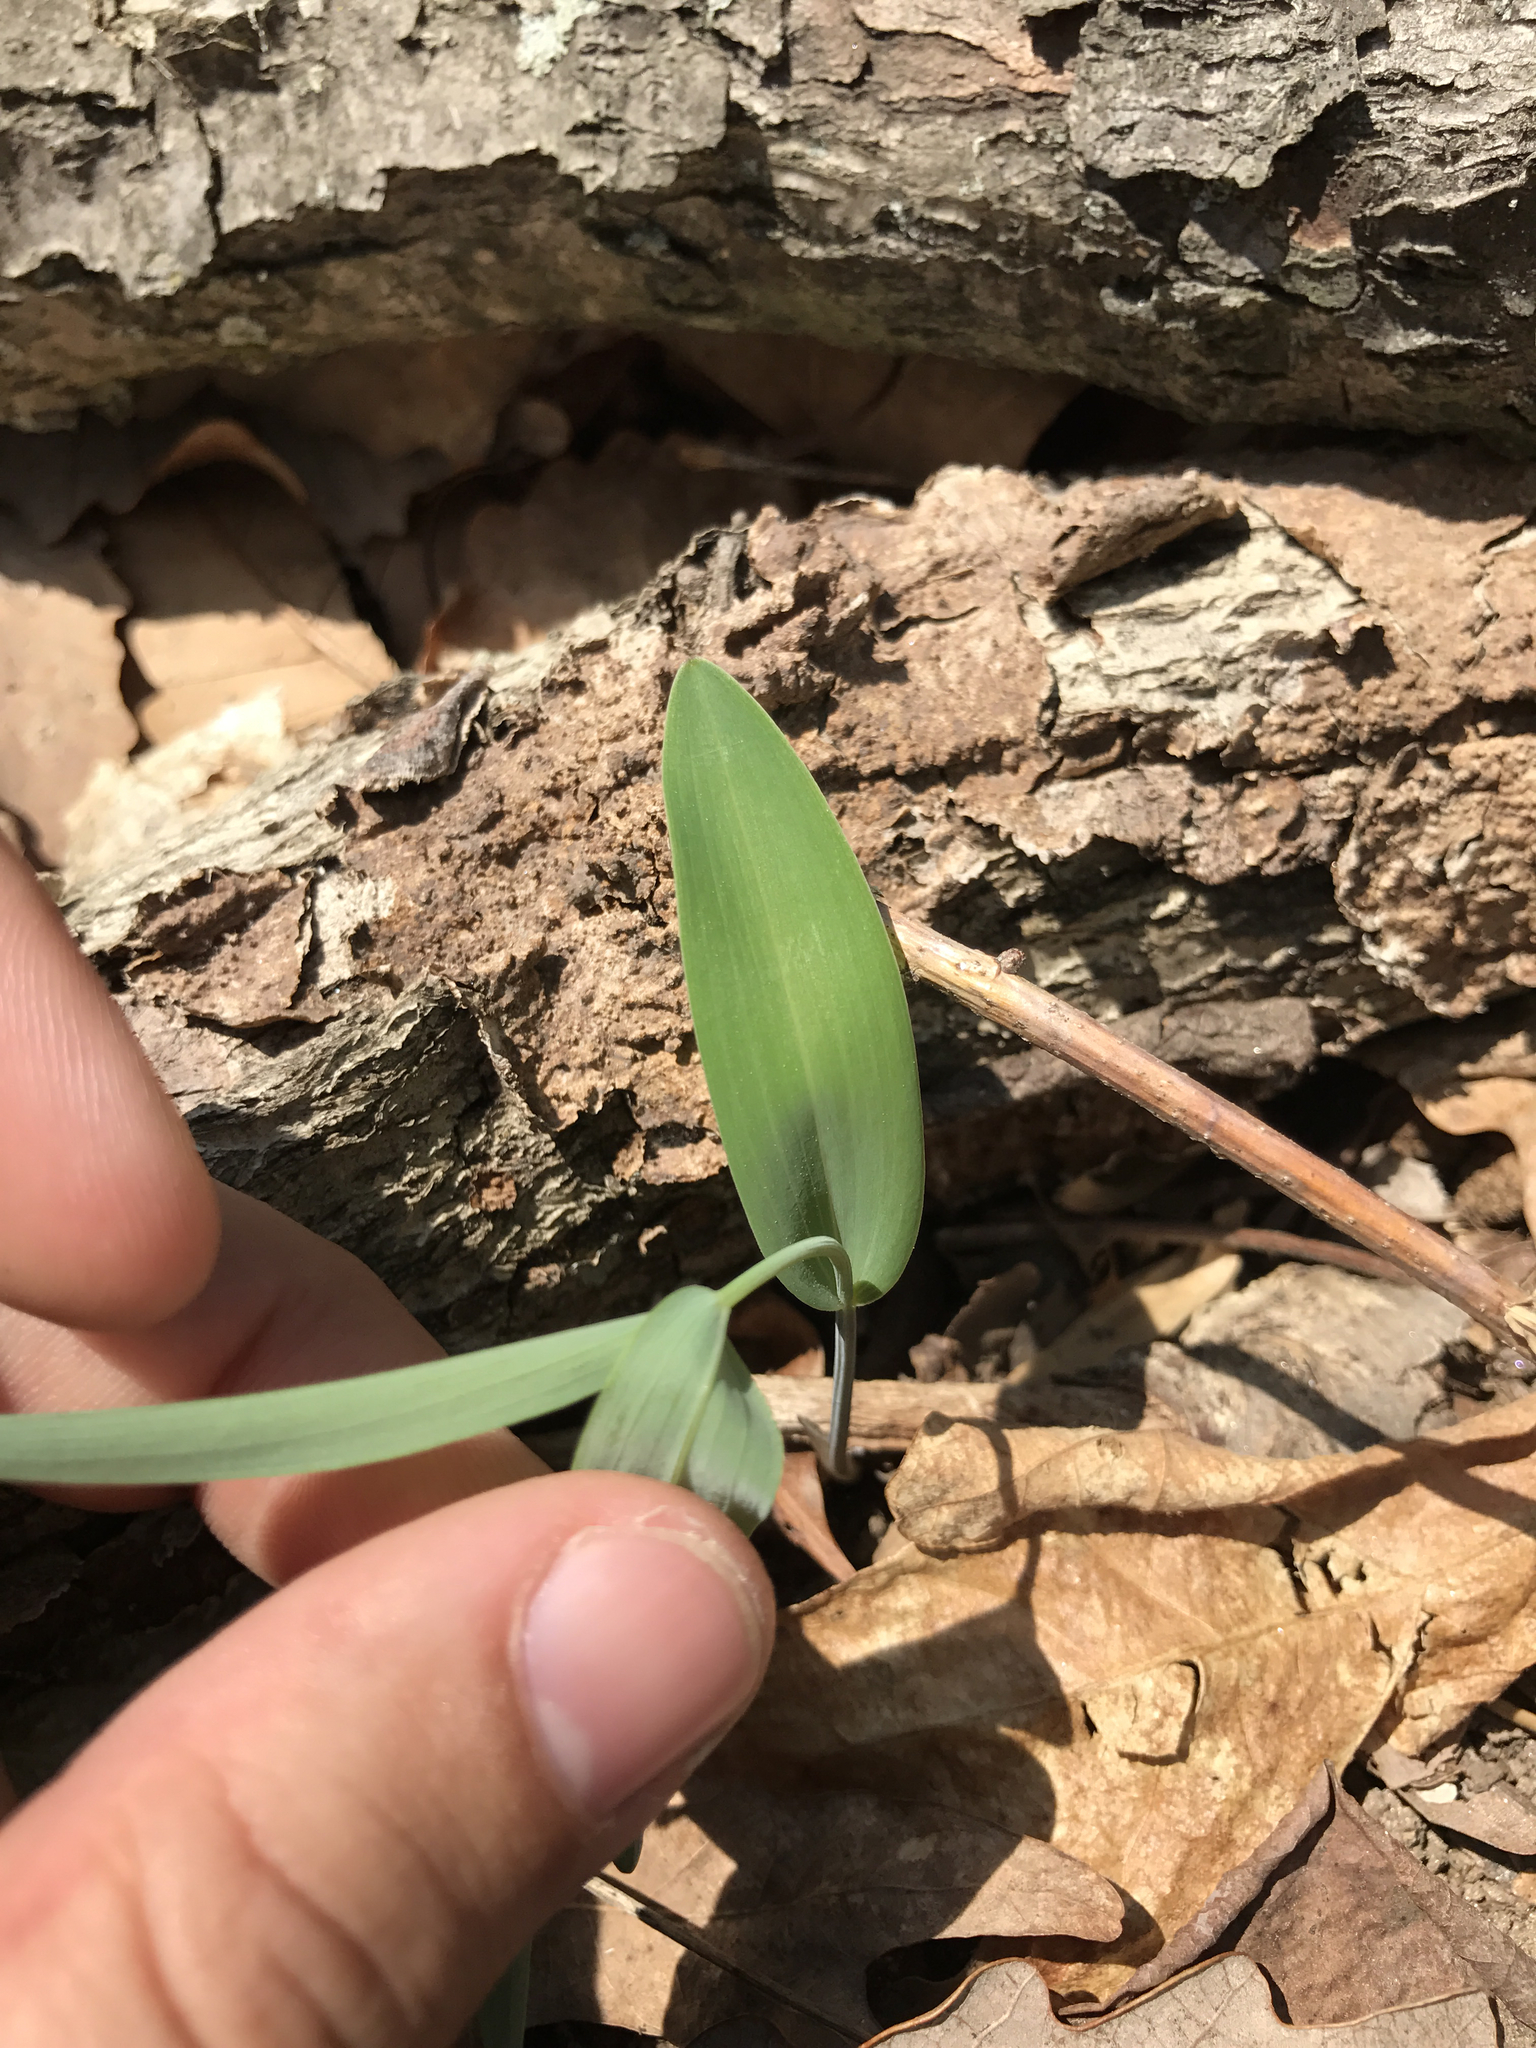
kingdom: Plantae
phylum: Tracheophyta
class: Liliopsida
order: Asparagales
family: Asparagaceae
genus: Polygonatum
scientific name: Polygonatum biflorum
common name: American solomon's-seal
